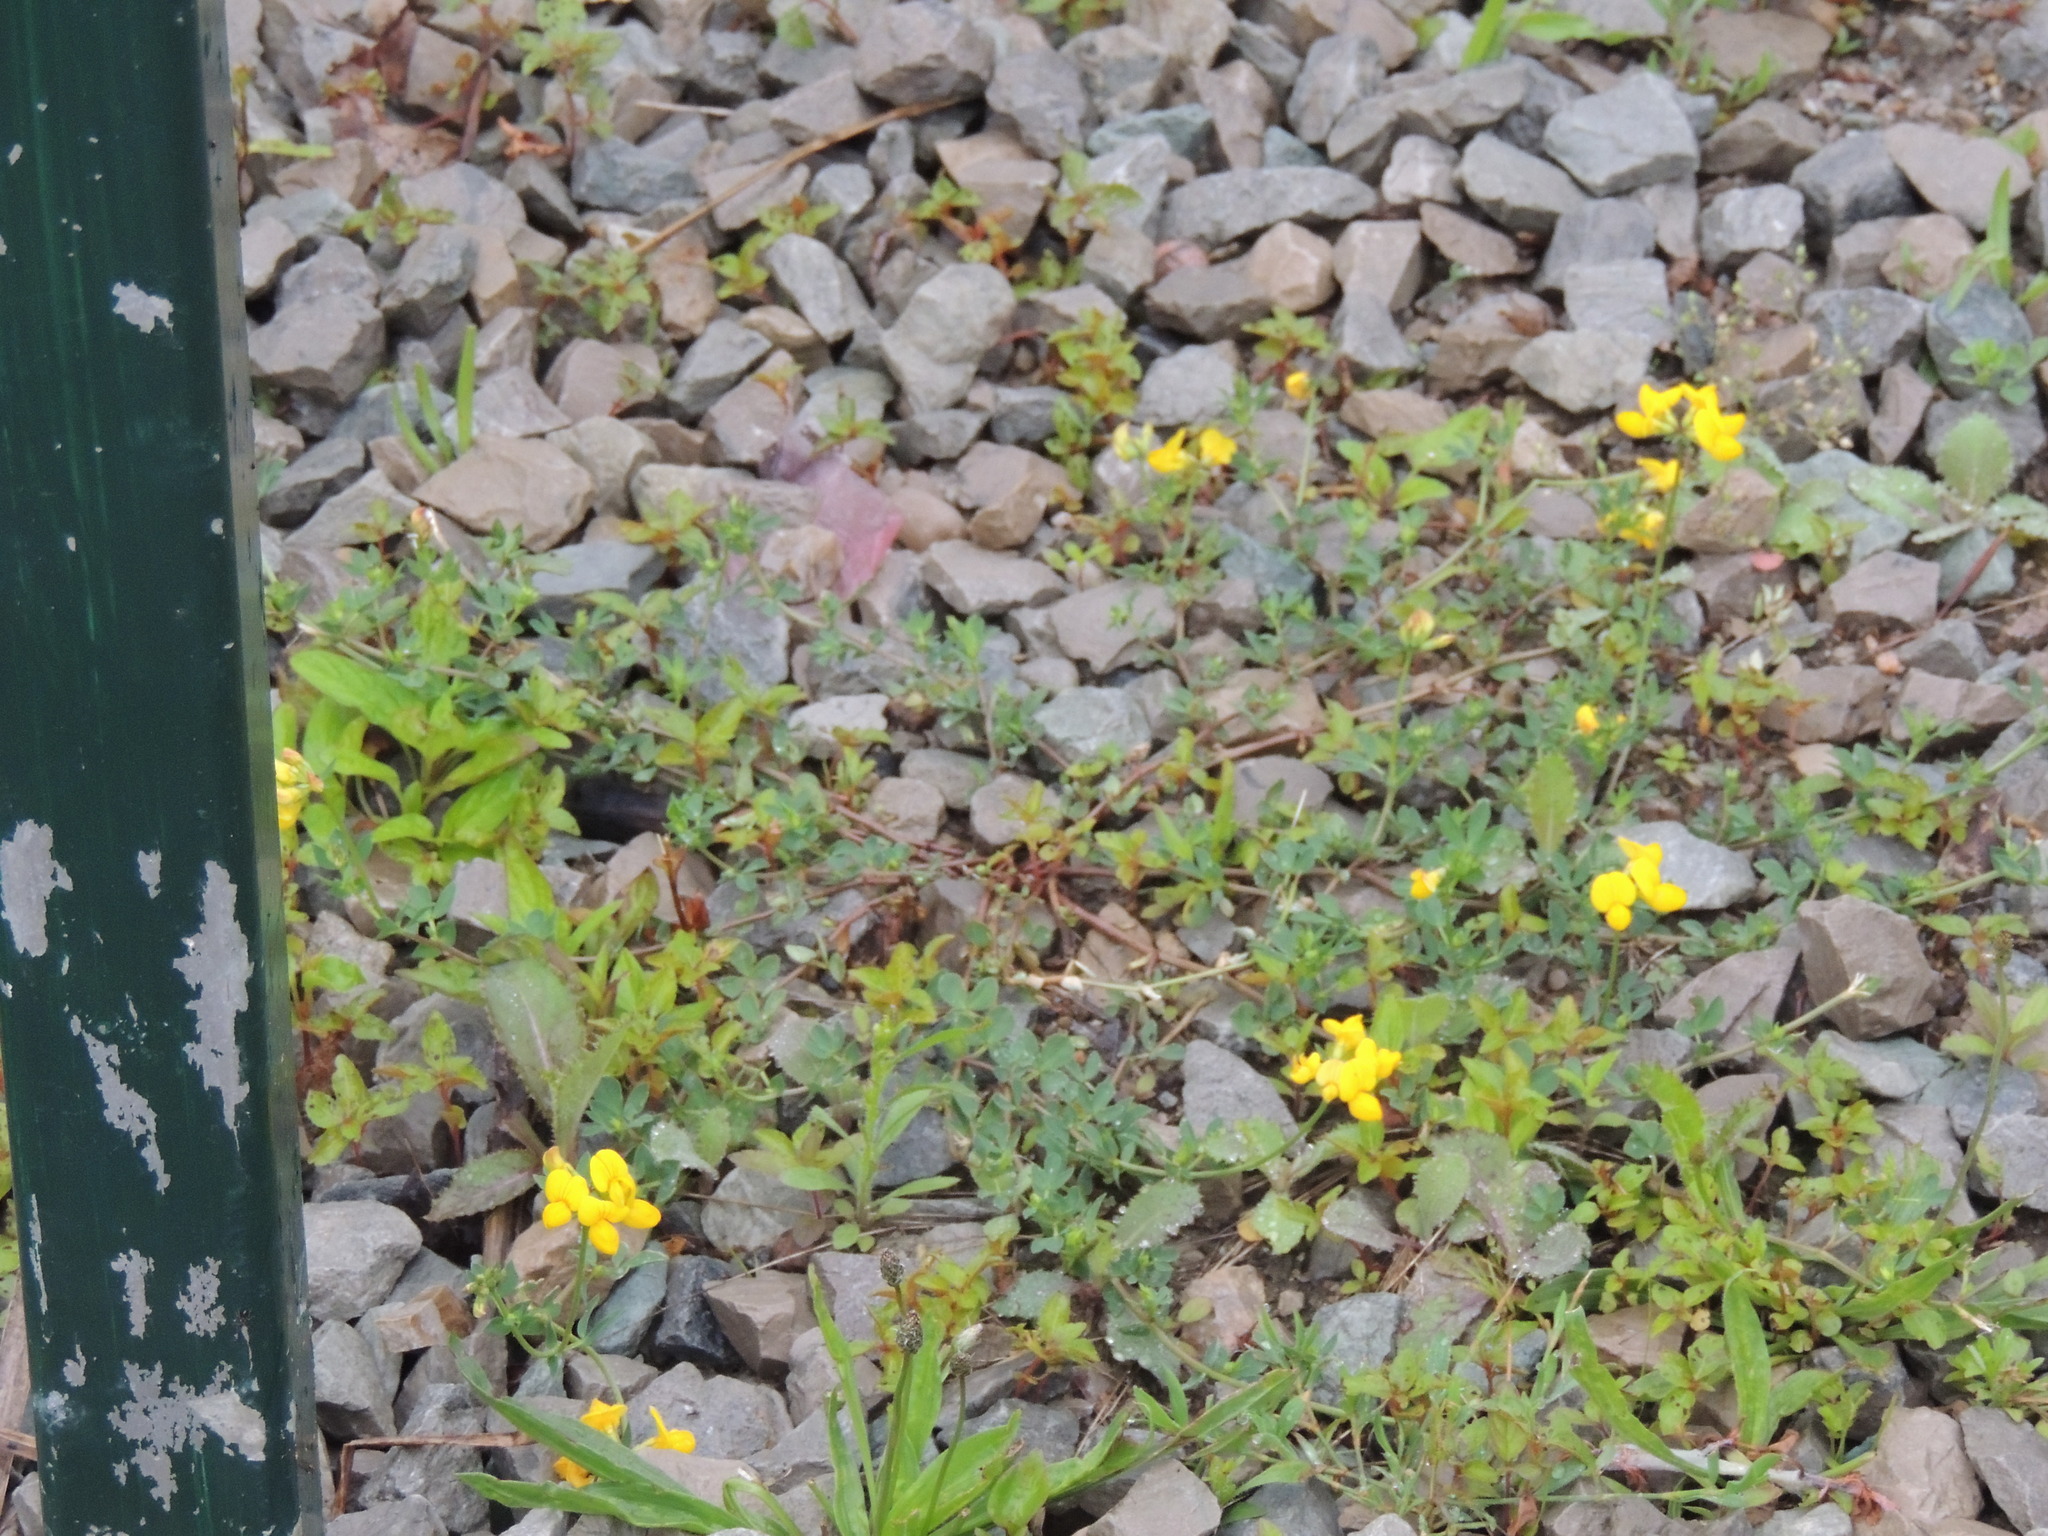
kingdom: Plantae
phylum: Tracheophyta
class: Magnoliopsida
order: Fabales
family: Fabaceae
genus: Lotus
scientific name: Lotus corniculatus
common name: Common bird's-foot-trefoil
